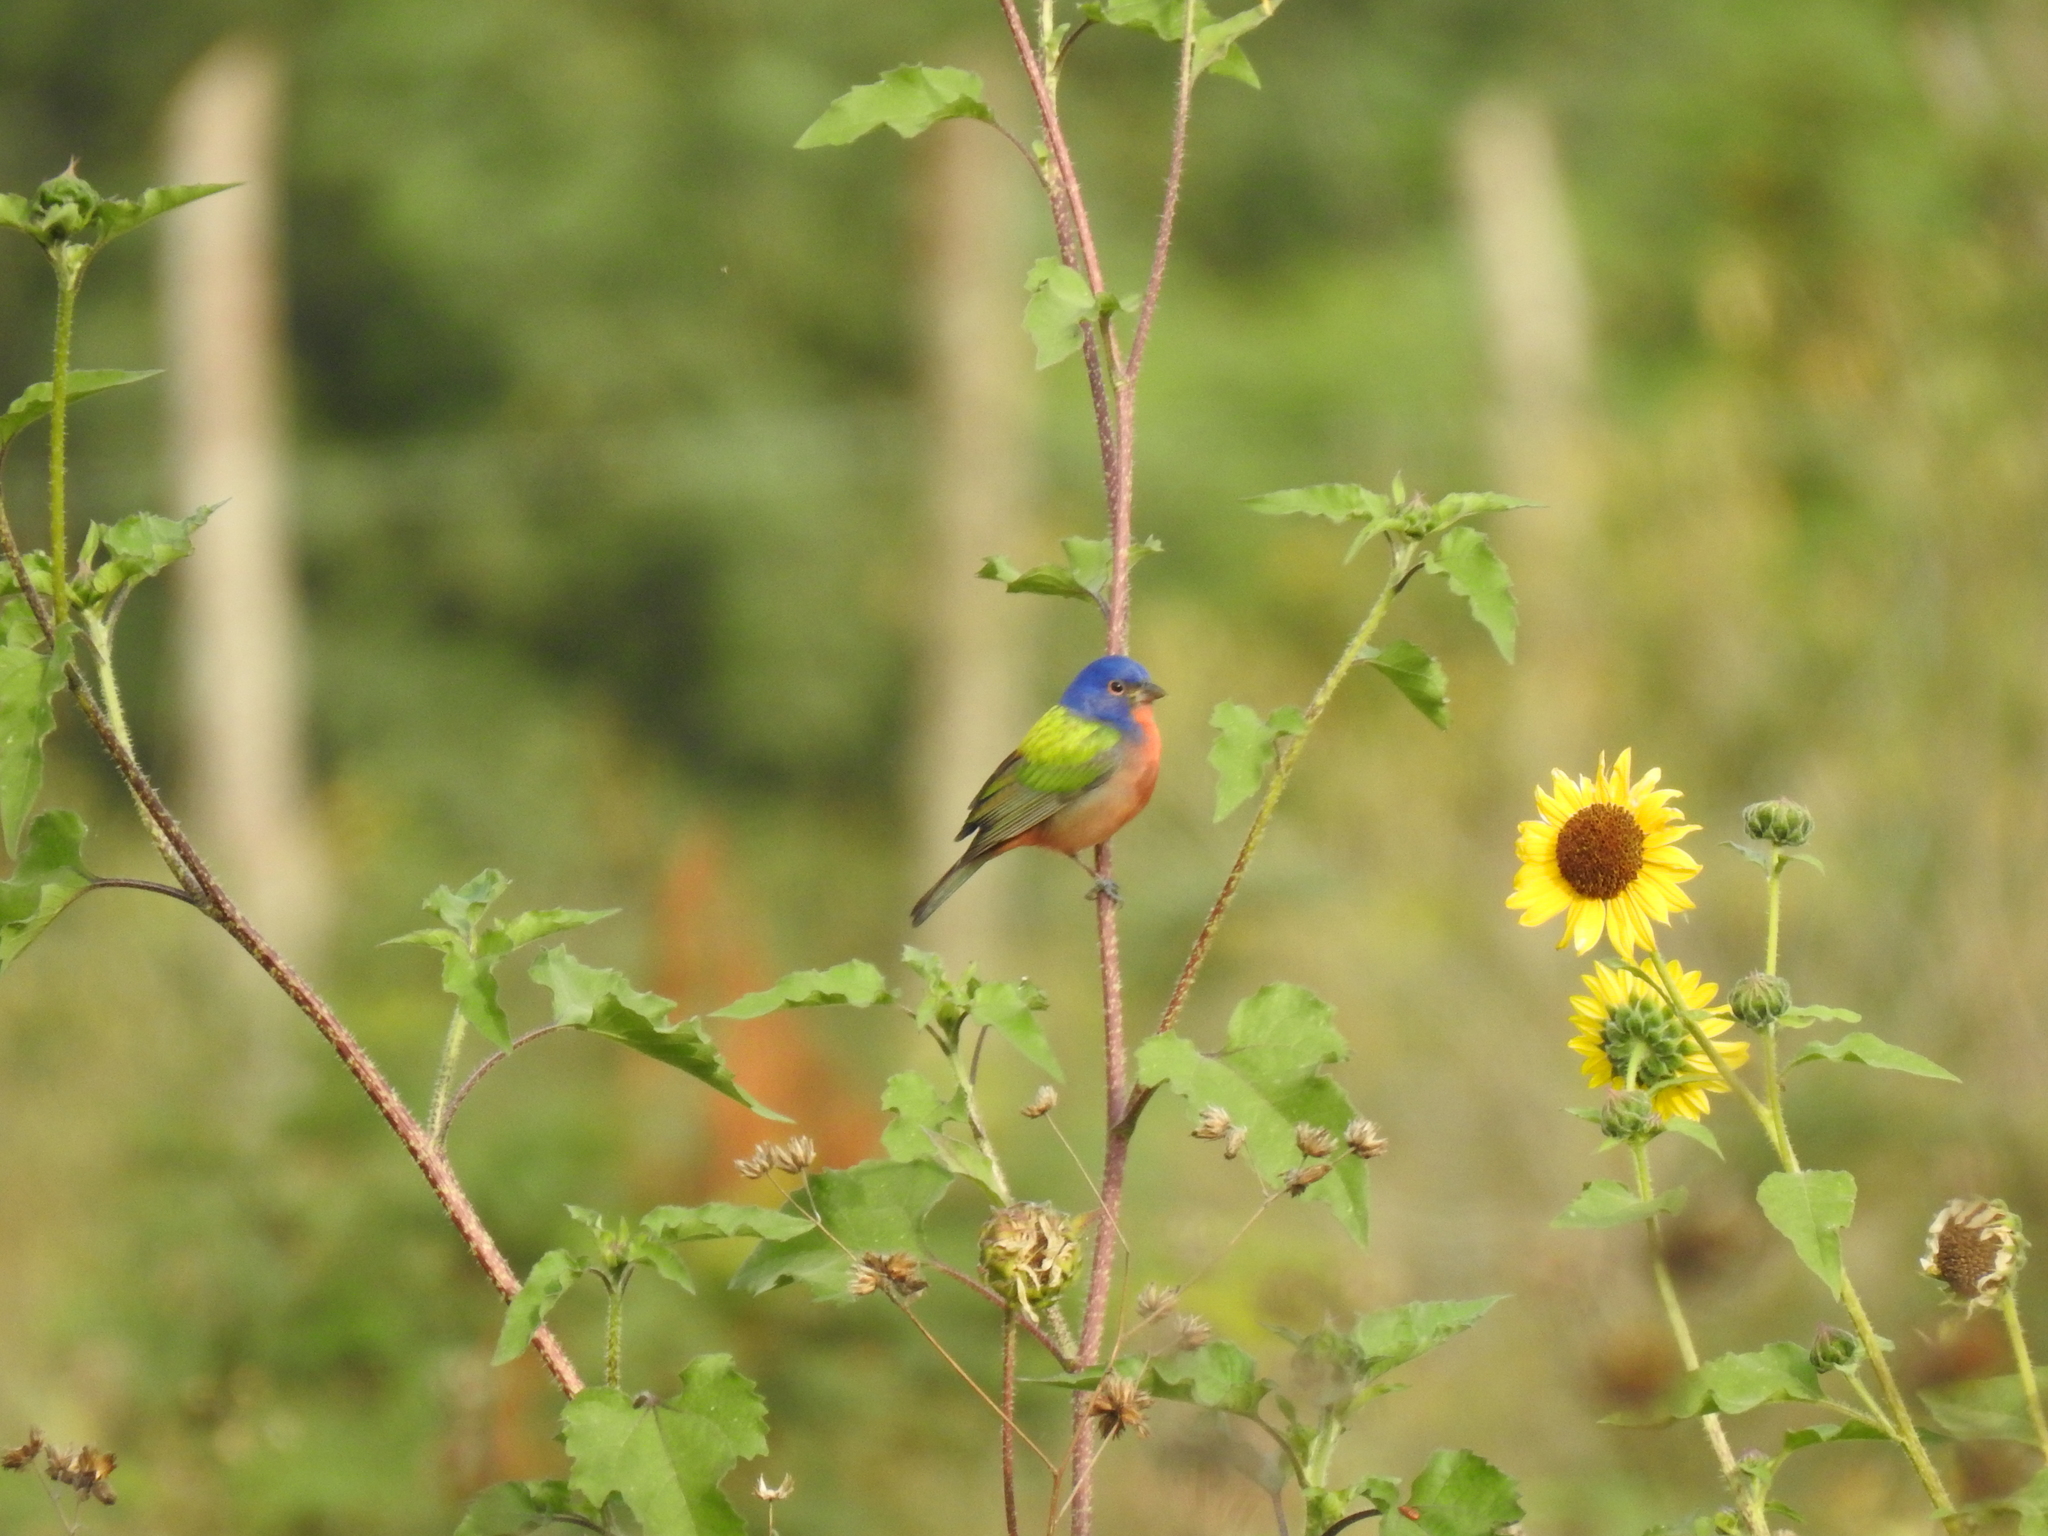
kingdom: Animalia
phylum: Chordata
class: Aves
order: Passeriformes
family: Cardinalidae
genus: Passerina
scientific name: Passerina ciris
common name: Painted bunting
